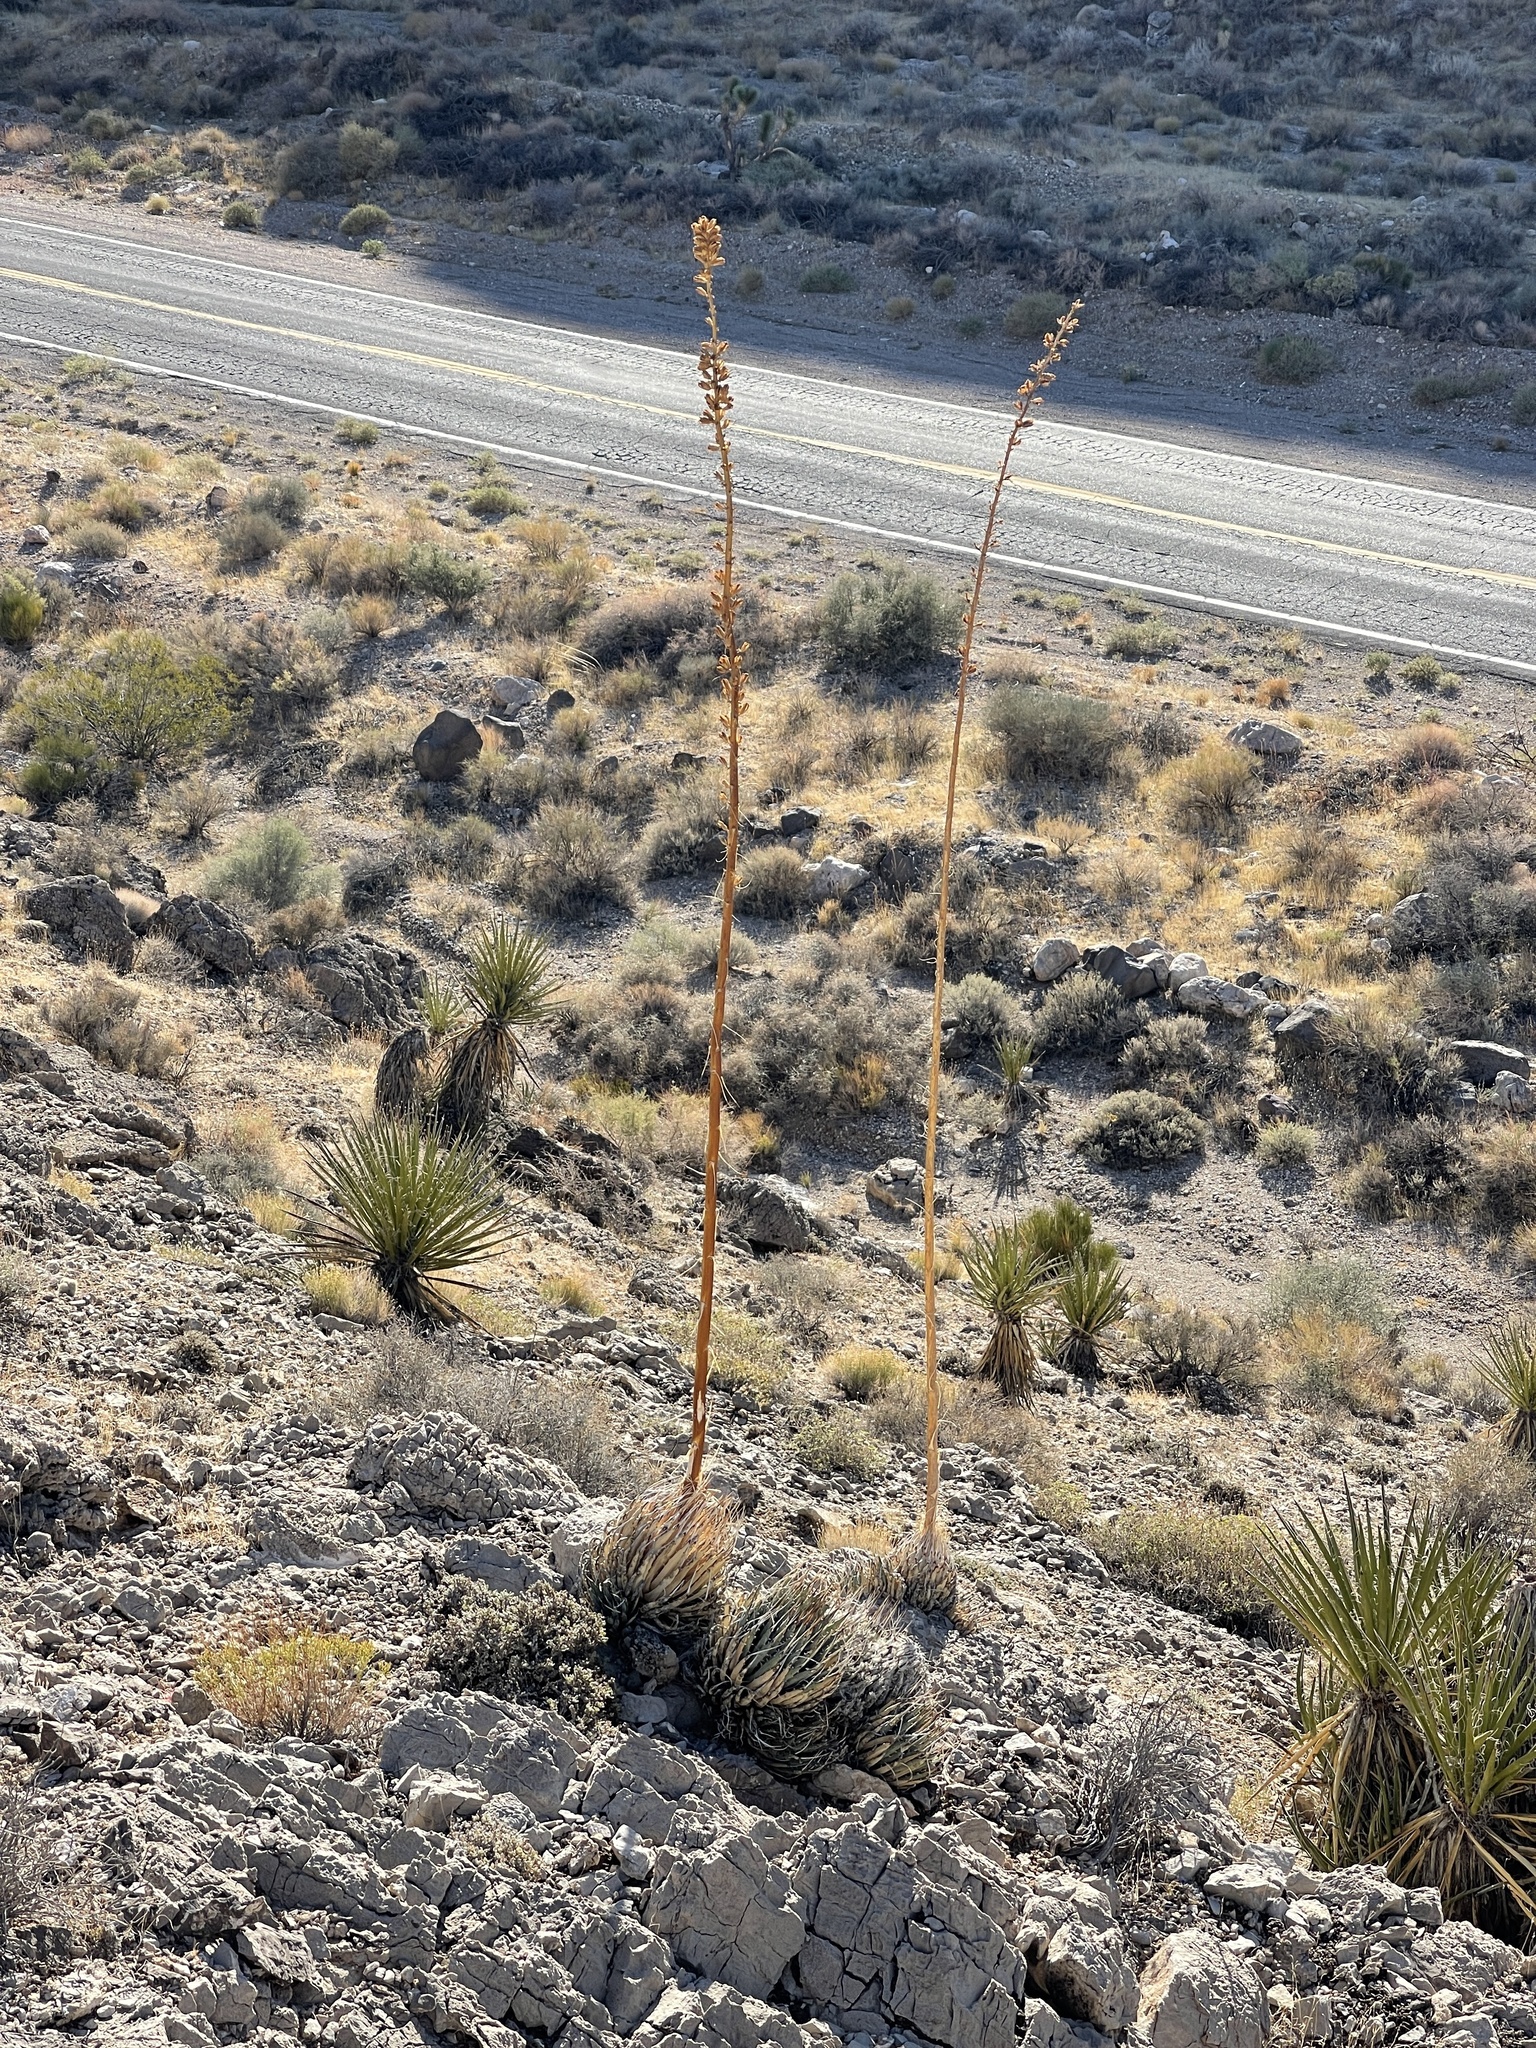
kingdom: Plantae
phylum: Tracheophyta
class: Liliopsida
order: Asparagales
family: Asparagaceae
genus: Agave
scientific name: Agave utahensis
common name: Utah agave
